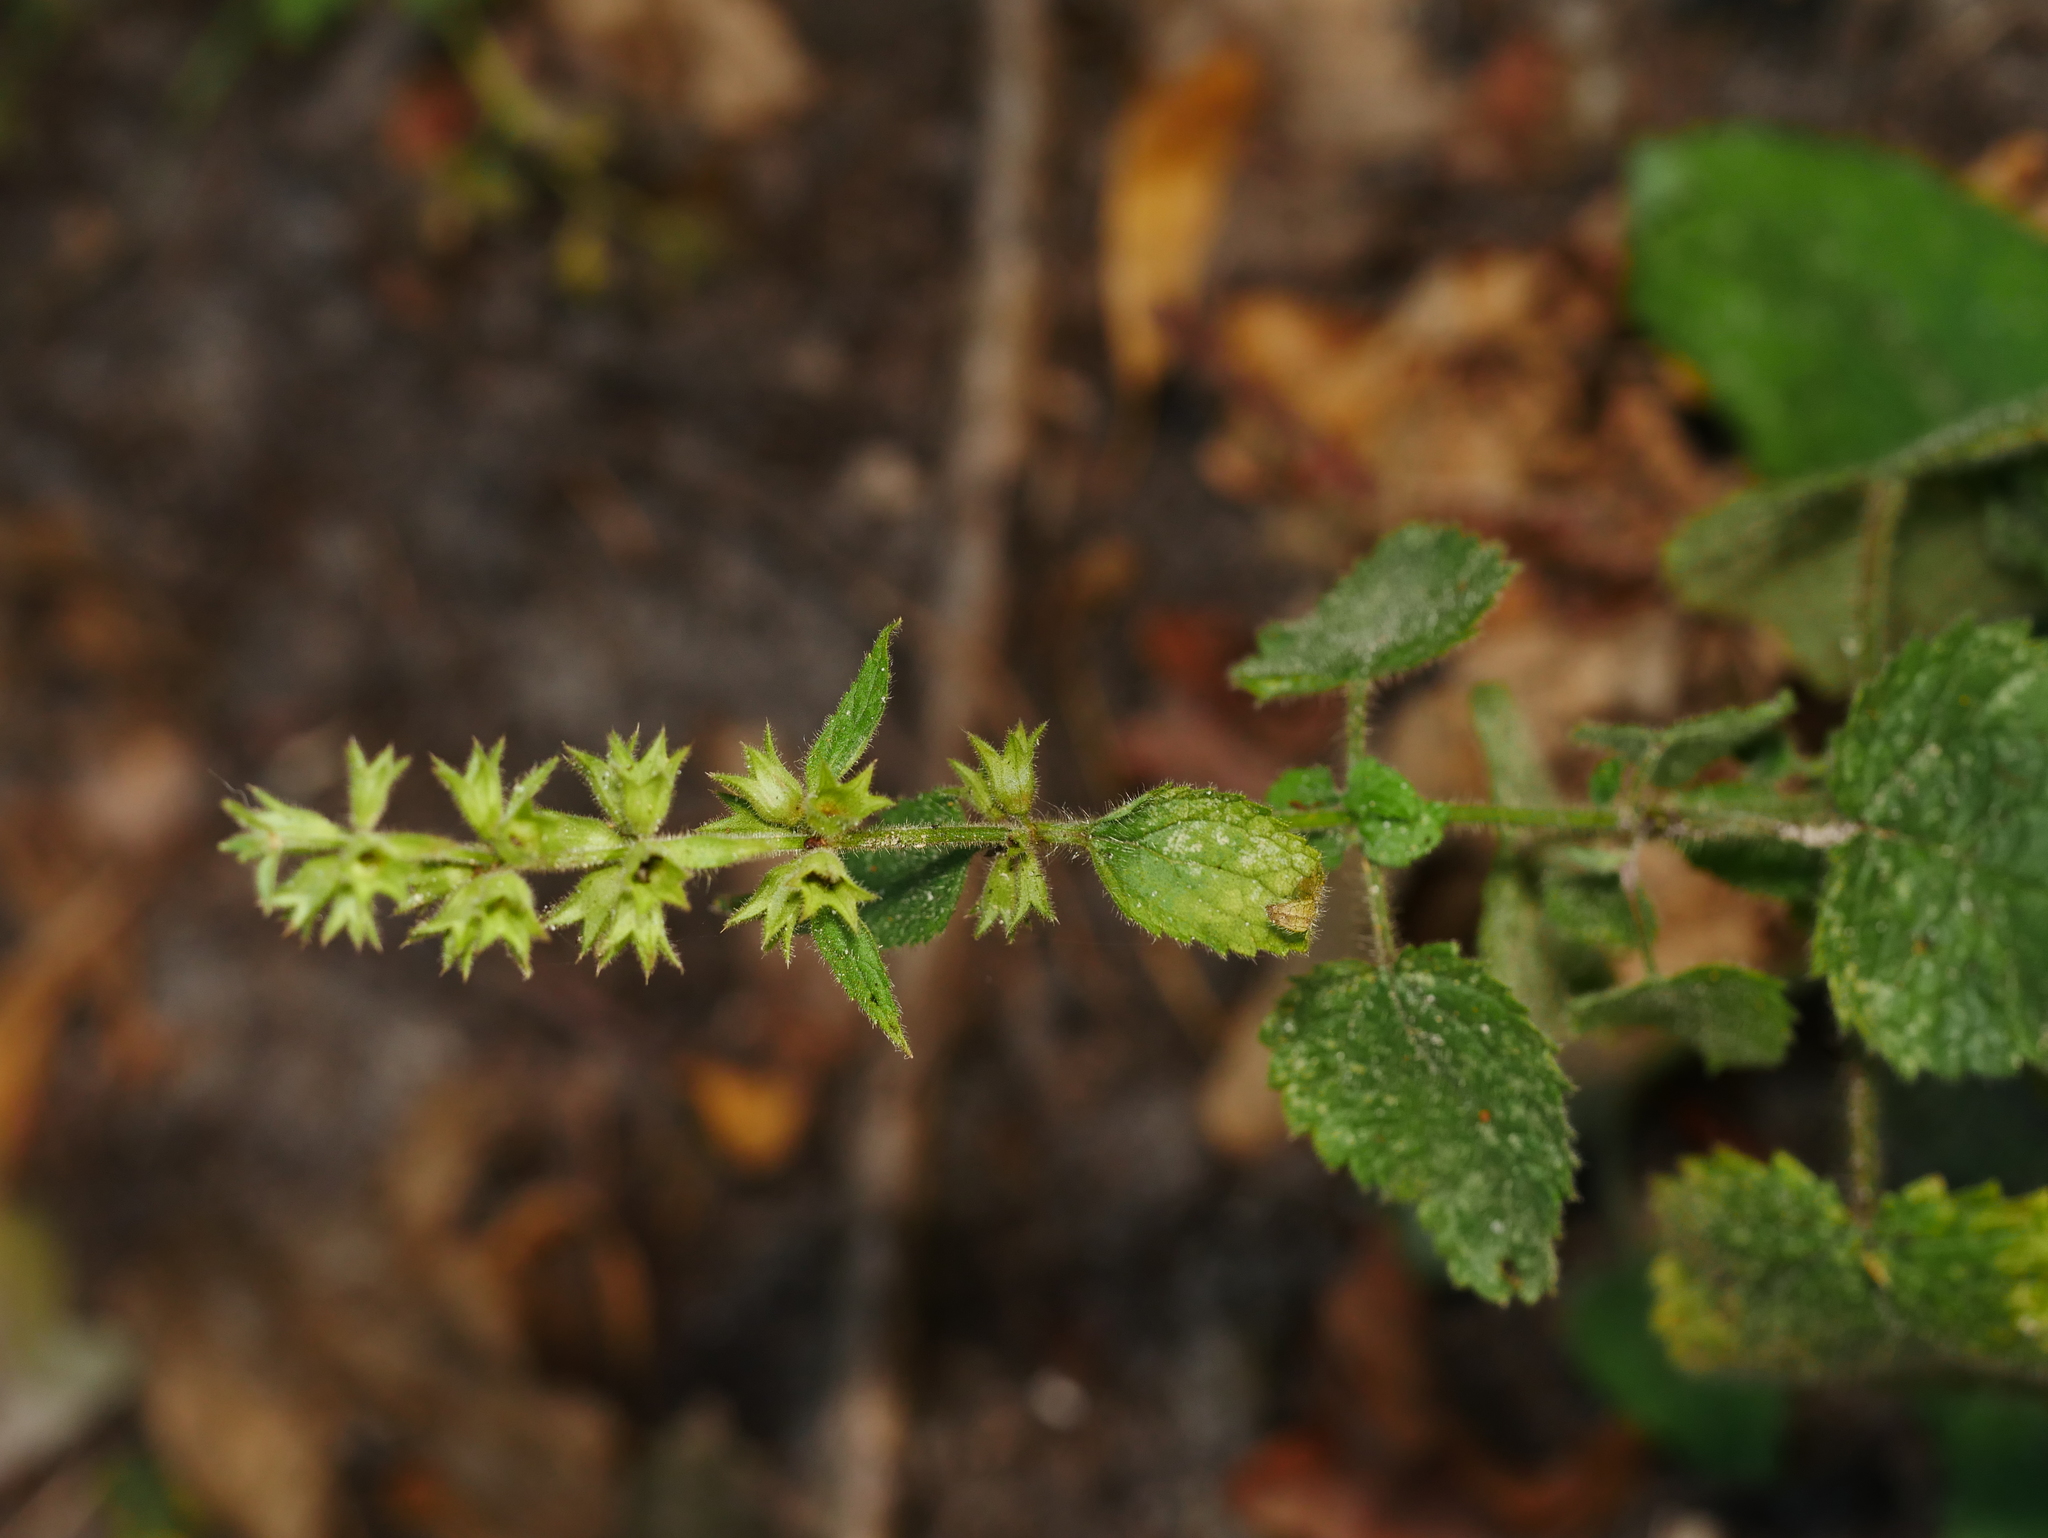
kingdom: Plantae
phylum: Tracheophyta
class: Magnoliopsida
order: Lamiales
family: Lamiaceae
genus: Stachys
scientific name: Stachys sylvatica
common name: Hedge woundwort
